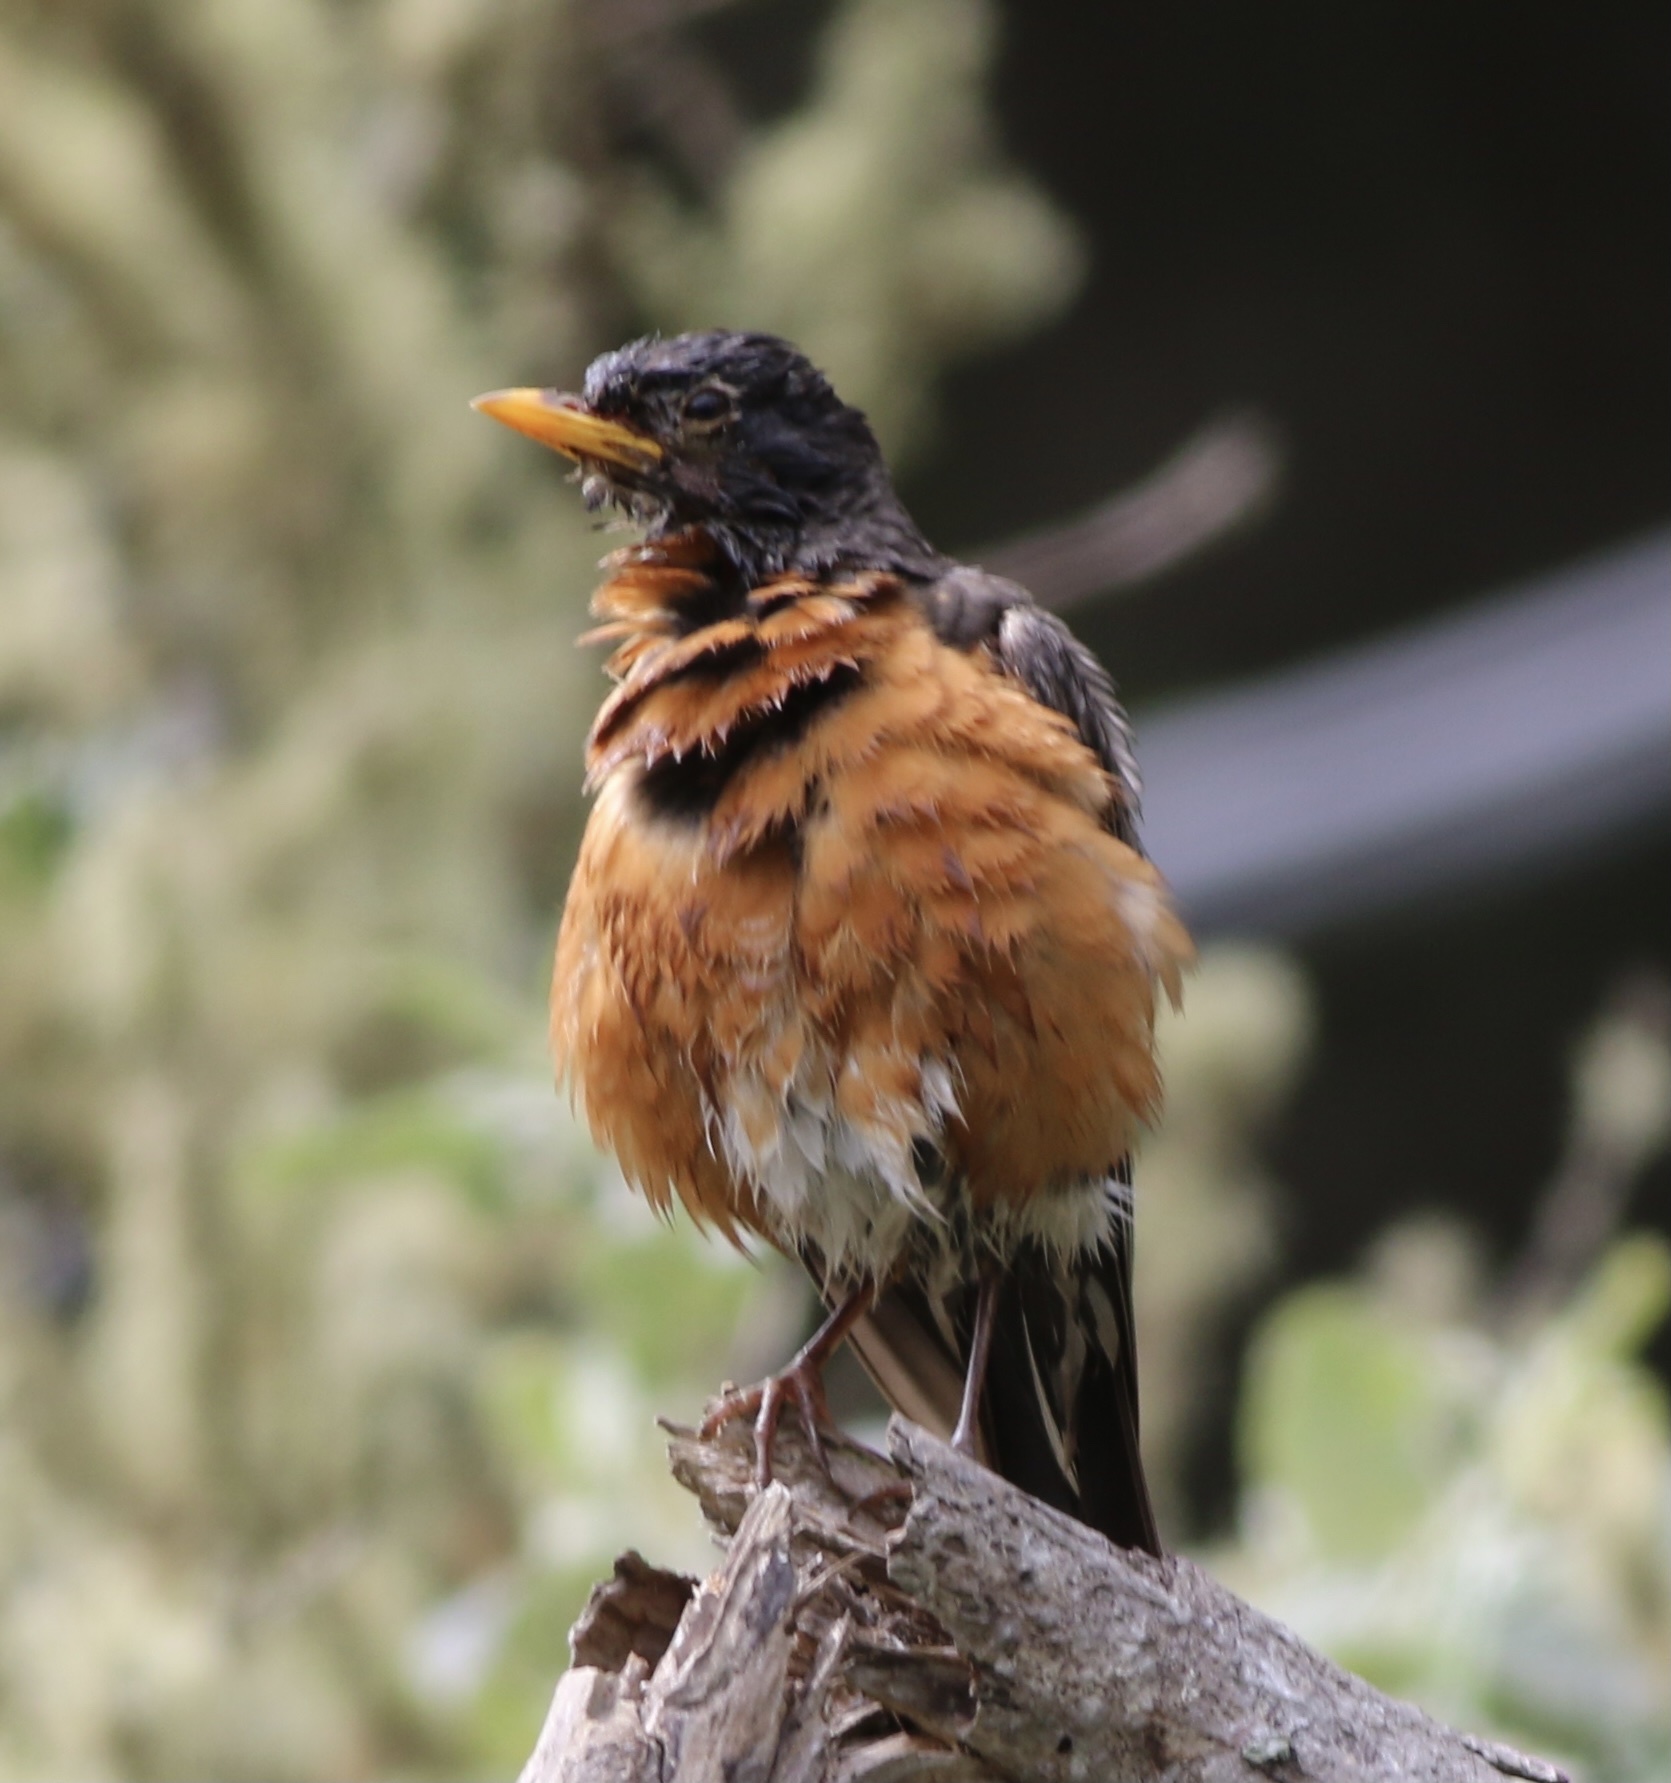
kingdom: Animalia
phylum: Chordata
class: Aves
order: Passeriformes
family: Turdidae
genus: Turdus
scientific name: Turdus migratorius
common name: American robin
